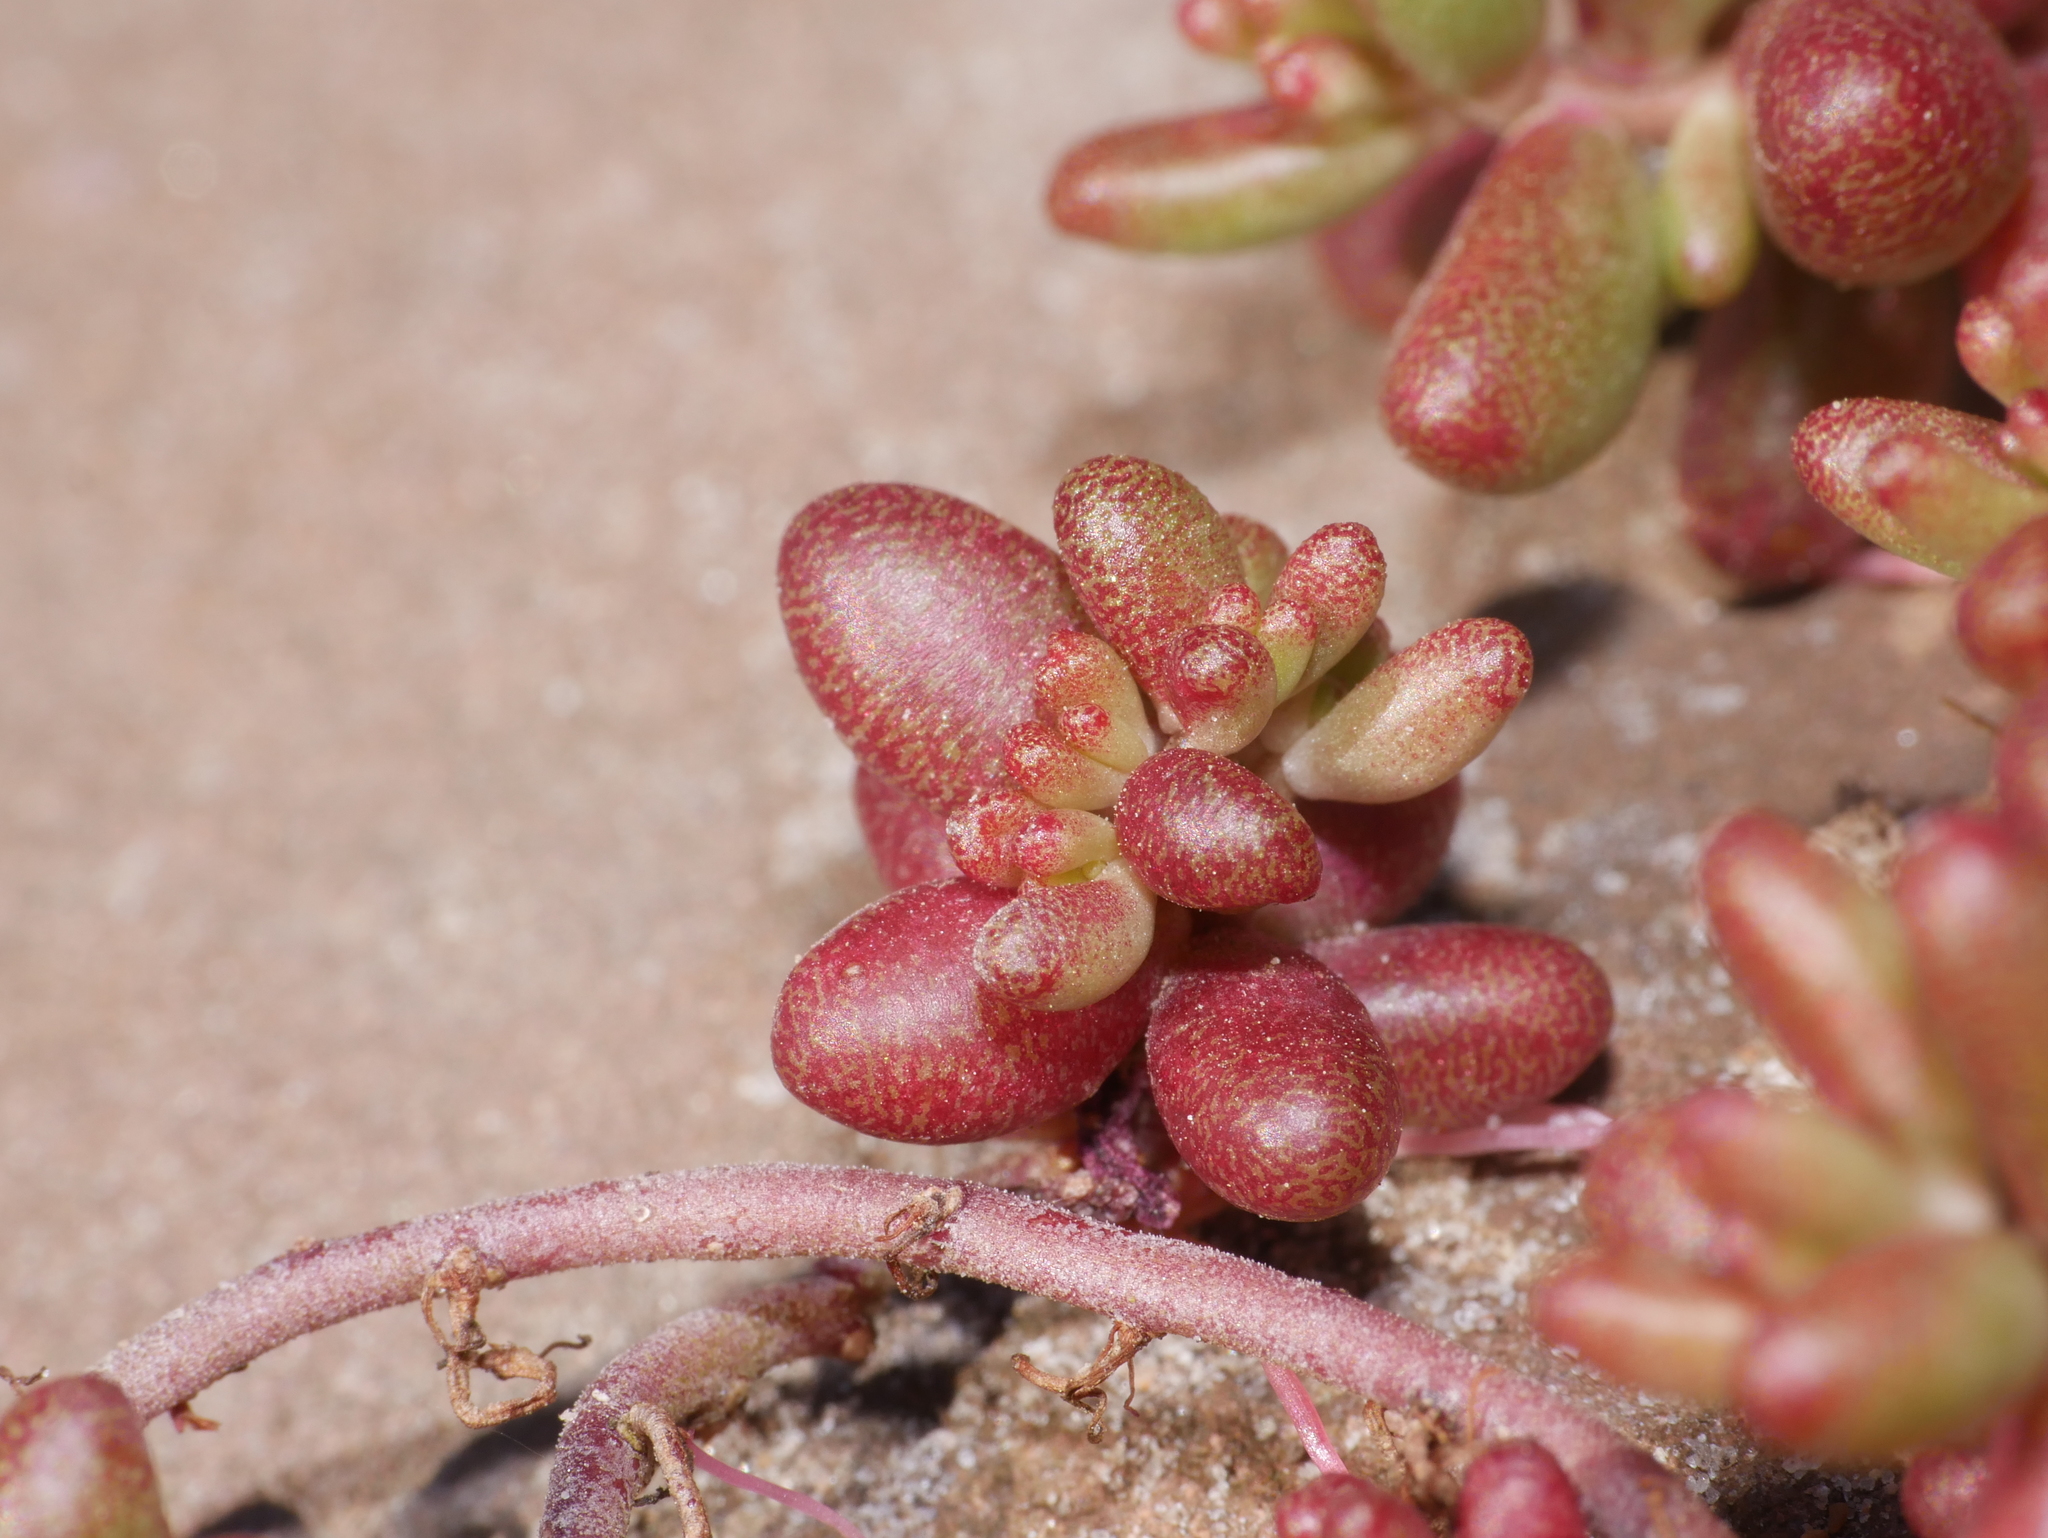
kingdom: Plantae
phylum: Tracheophyta
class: Magnoliopsida
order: Saxifragales
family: Crassulaceae
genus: Sedum
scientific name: Sedum album
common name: White stonecrop
